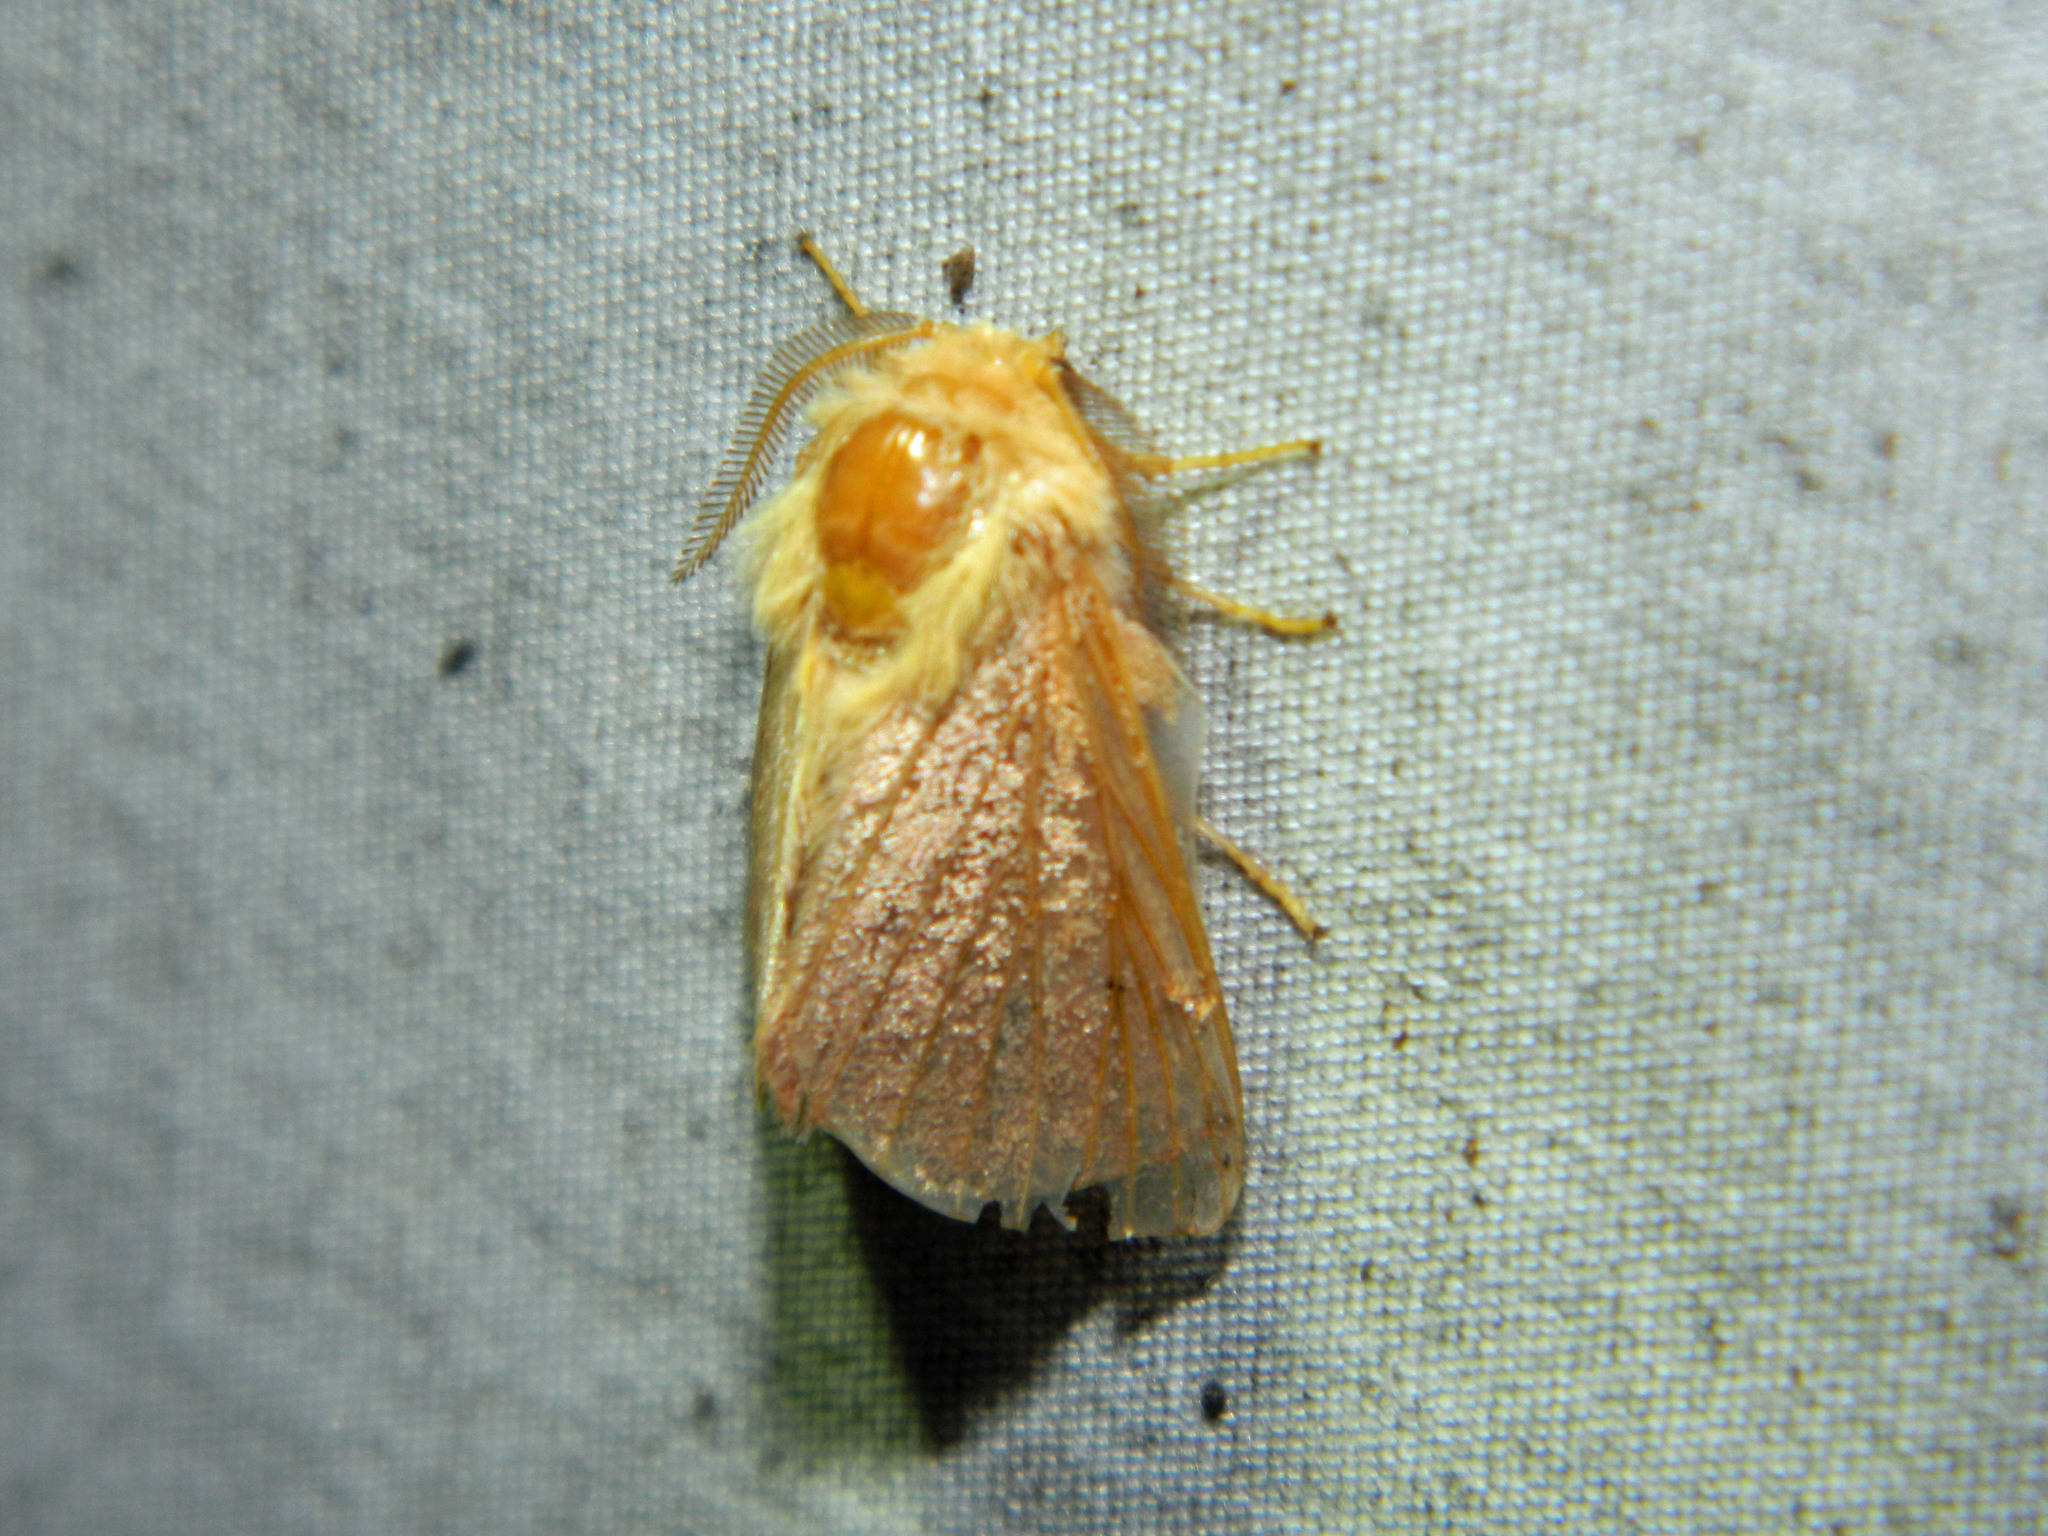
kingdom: Animalia
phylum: Arthropoda
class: Insecta
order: Lepidoptera
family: Lasiocampidae
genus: Malacosoma
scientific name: Malacosoma disstria
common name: Forest tent caterpillar
